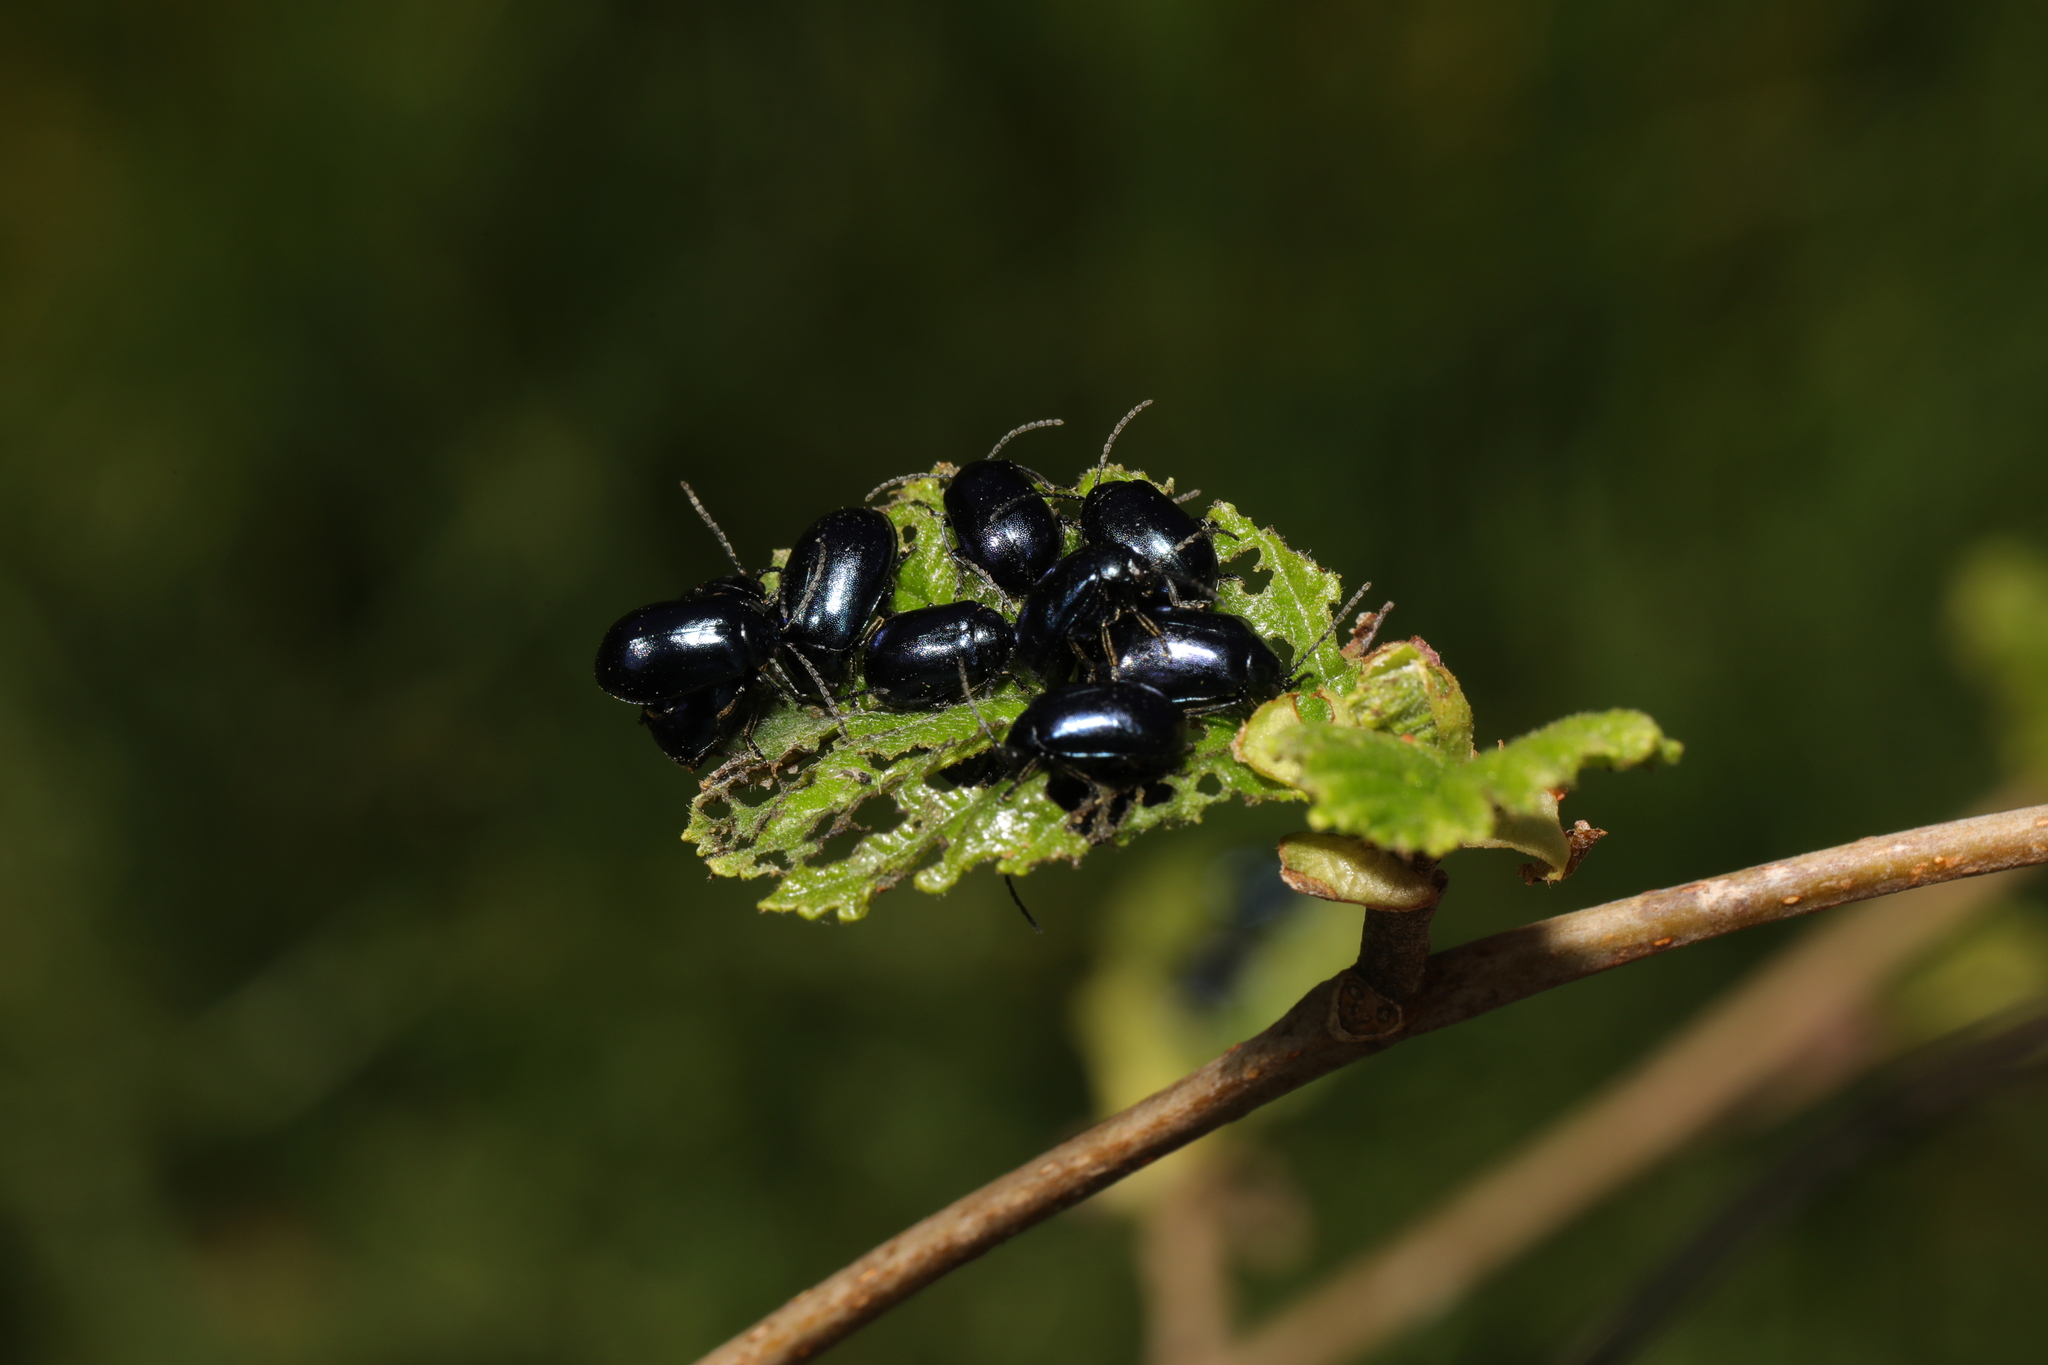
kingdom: Animalia
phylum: Arthropoda
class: Insecta
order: Coleoptera
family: Chrysomelidae
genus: Agelastica
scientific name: Agelastica alni
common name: Alder leaf beetle
